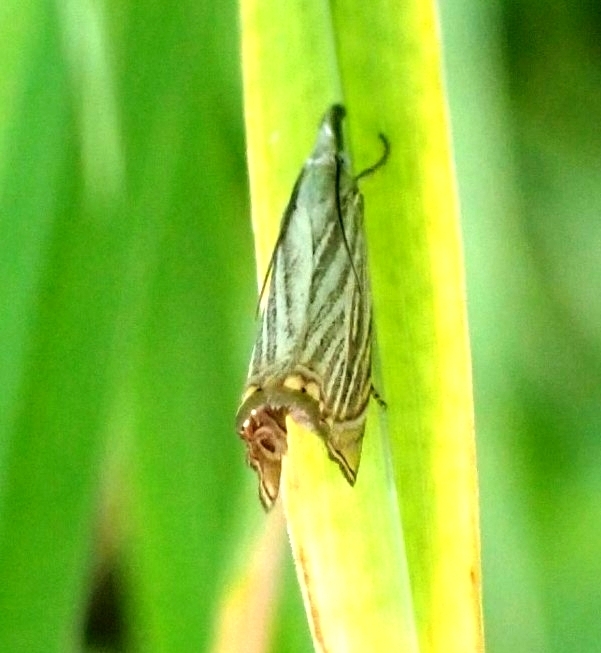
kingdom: Animalia
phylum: Arthropoda
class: Insecta
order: Lepidoptera
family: Crambidae
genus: Chrysoteuchia
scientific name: Chrysoteuchia culmella
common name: Garden grass-veneer
